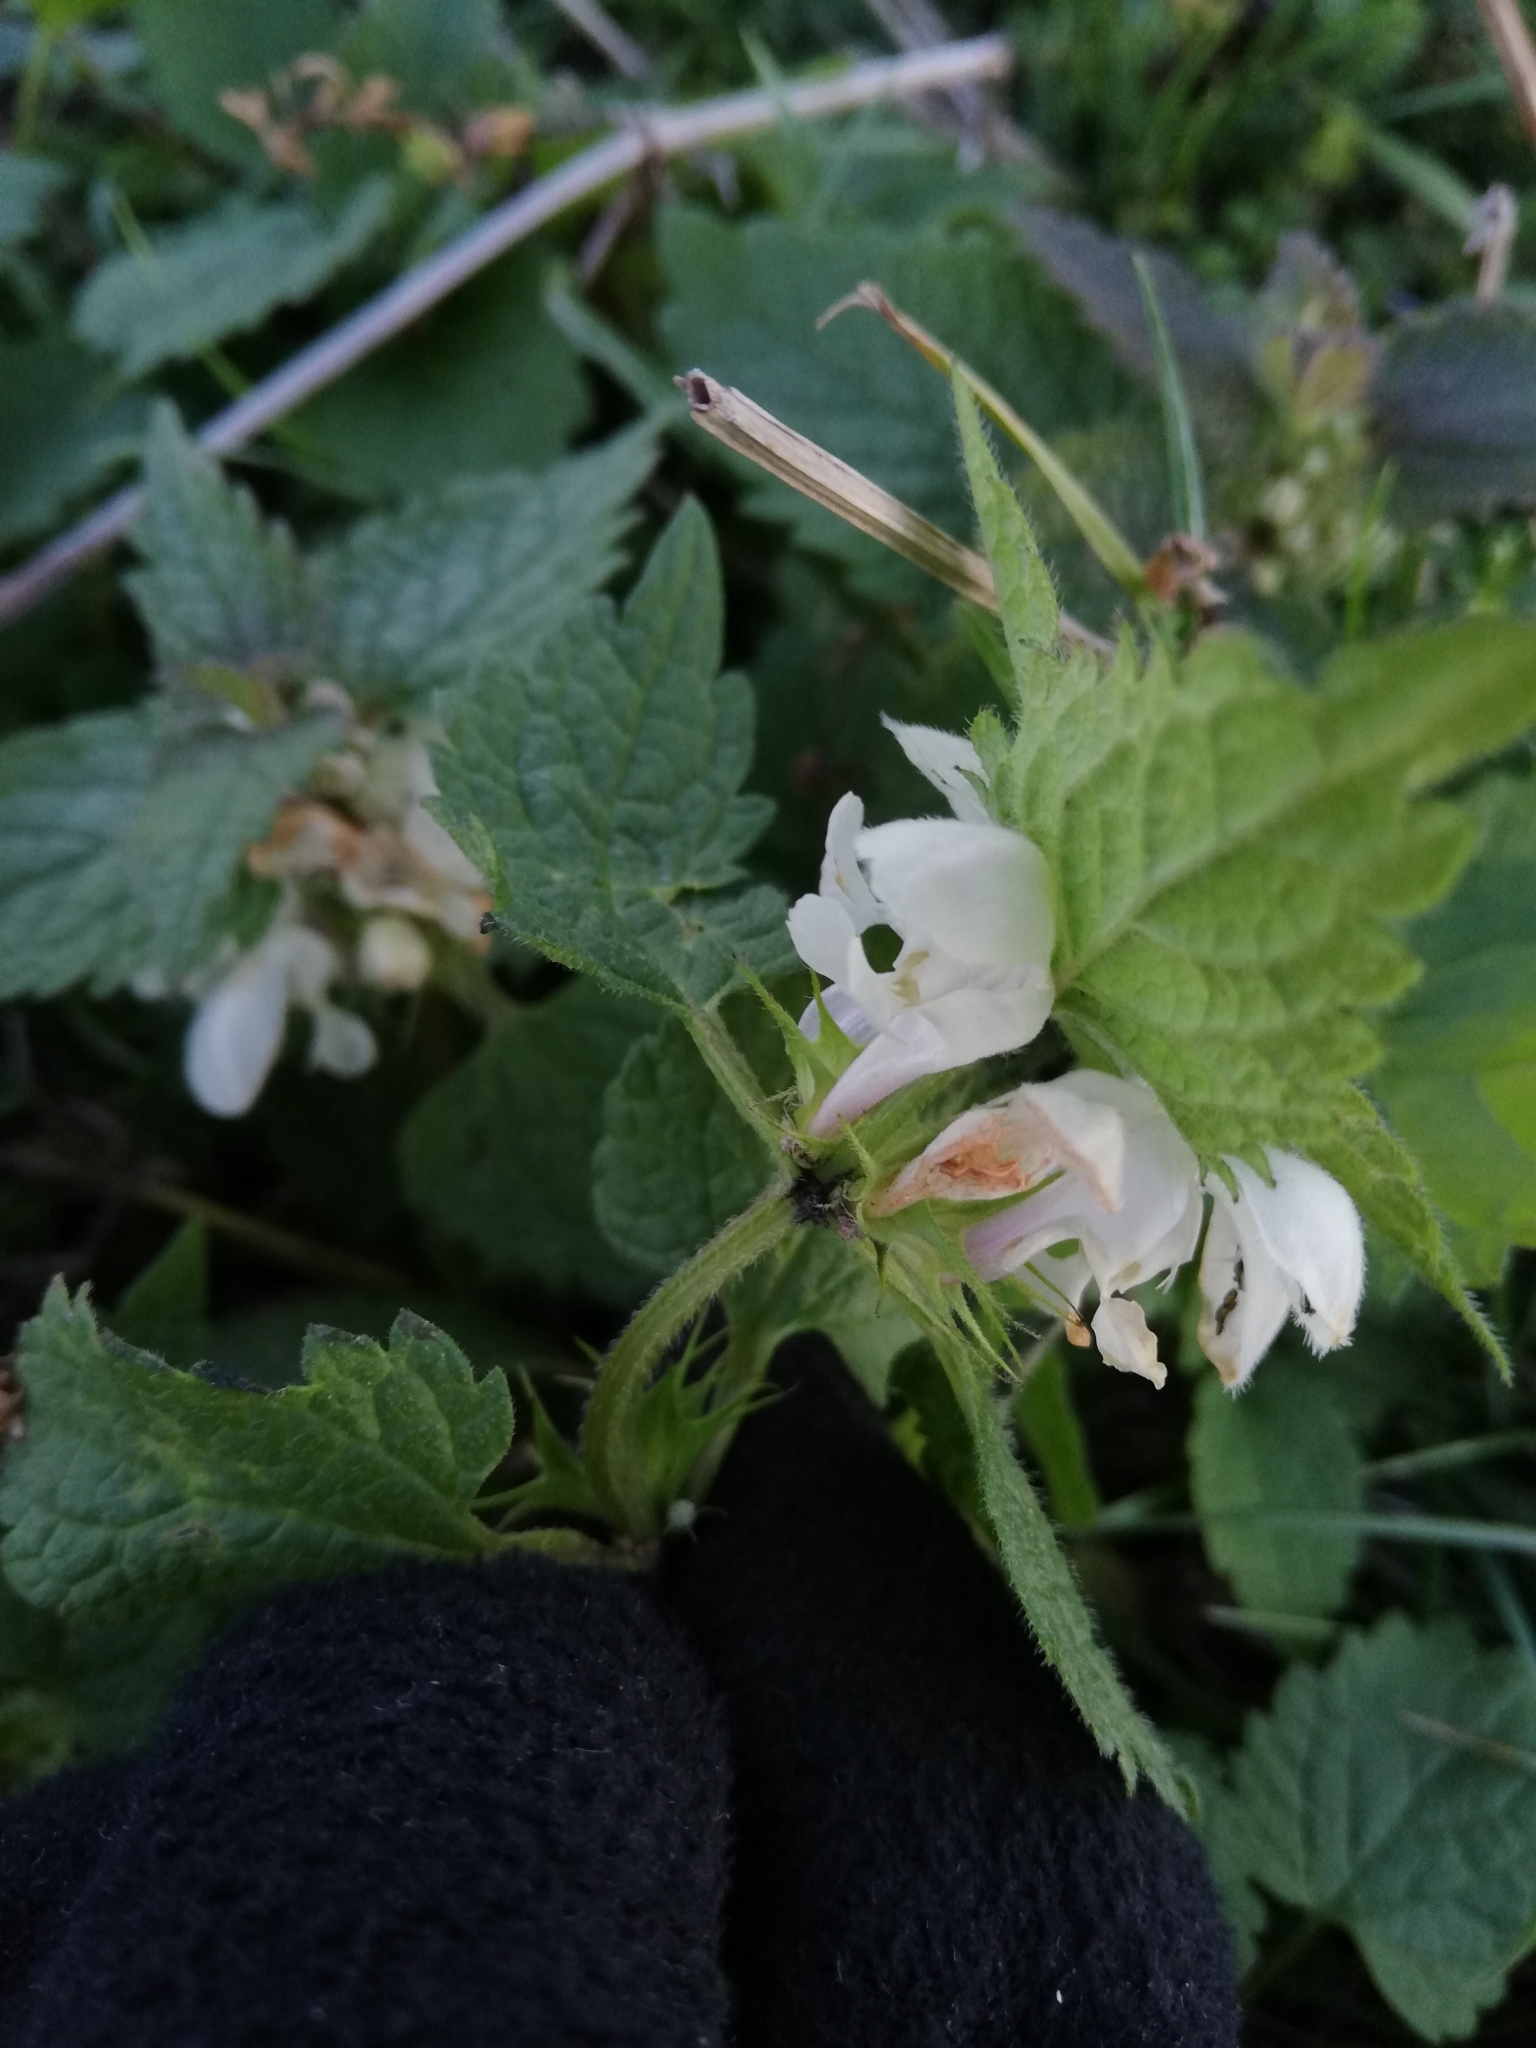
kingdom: Plantae
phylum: Tracheophyta
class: Magnoliopsida
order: Lamiales
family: Lamiaceae
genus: Lamium
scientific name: Lamium album
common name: White dead-nettle
